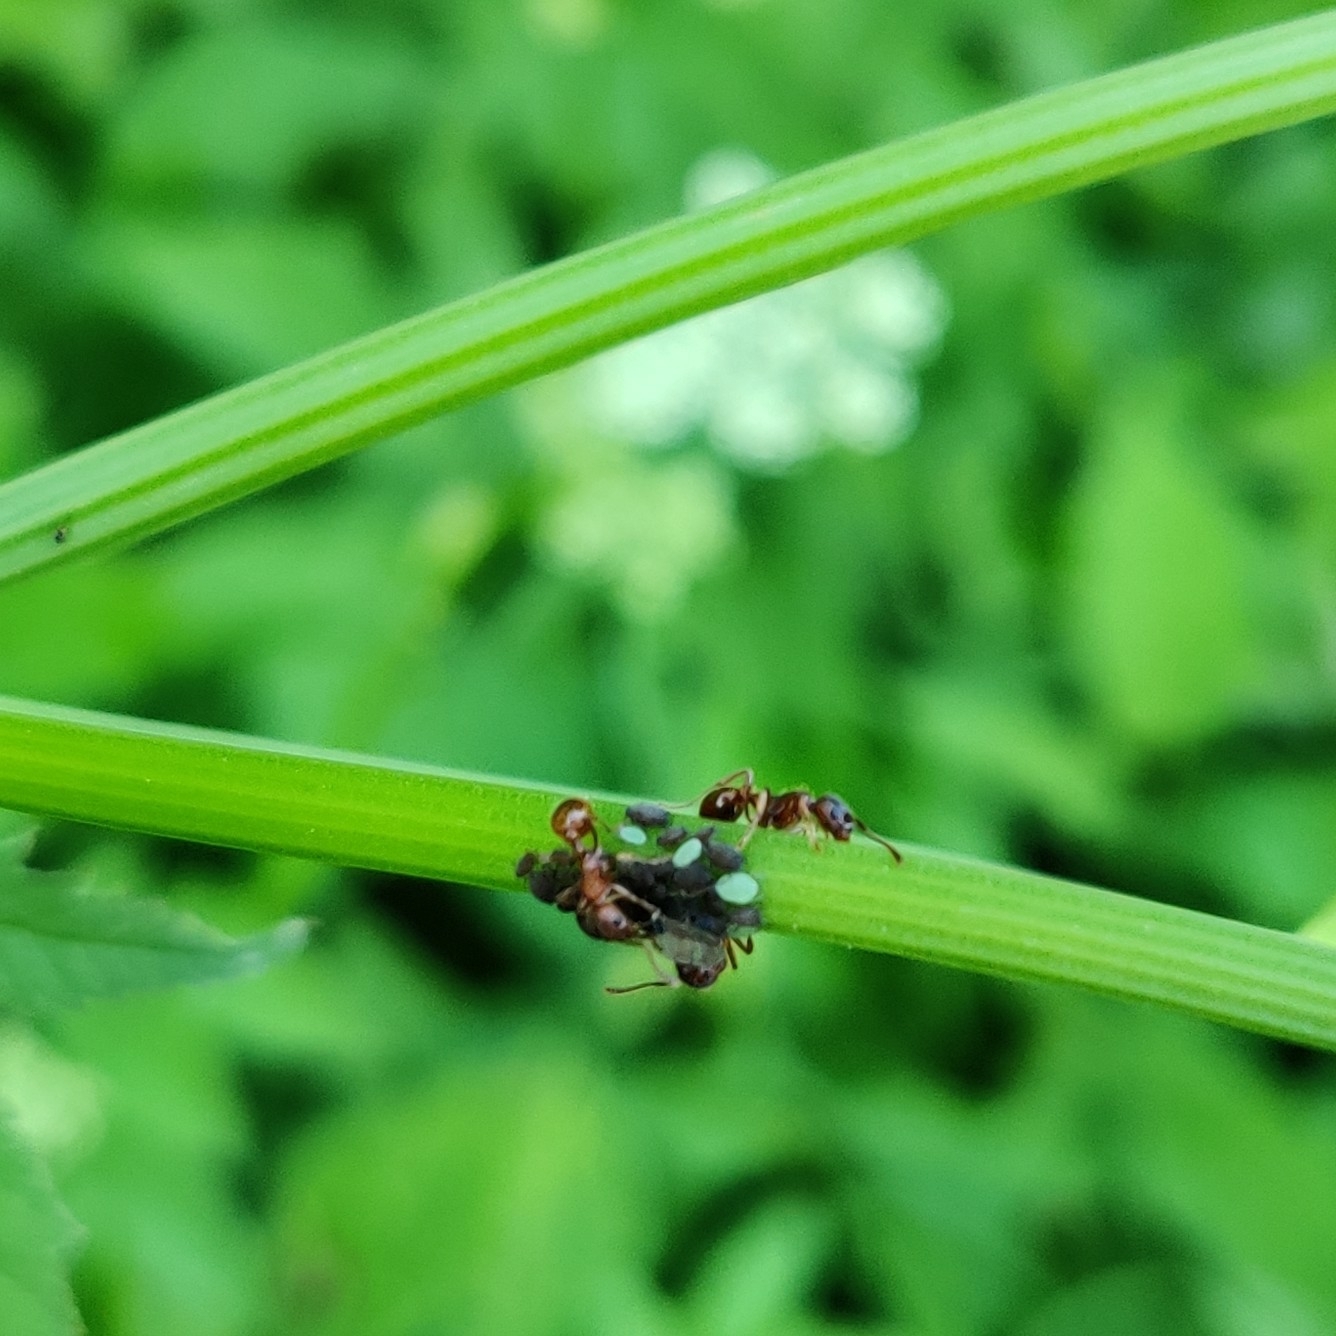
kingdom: Animalia
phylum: Arthropoda
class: Insecta
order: Hymenoptera
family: Formicidae
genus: Myrmica
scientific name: Myrmica
